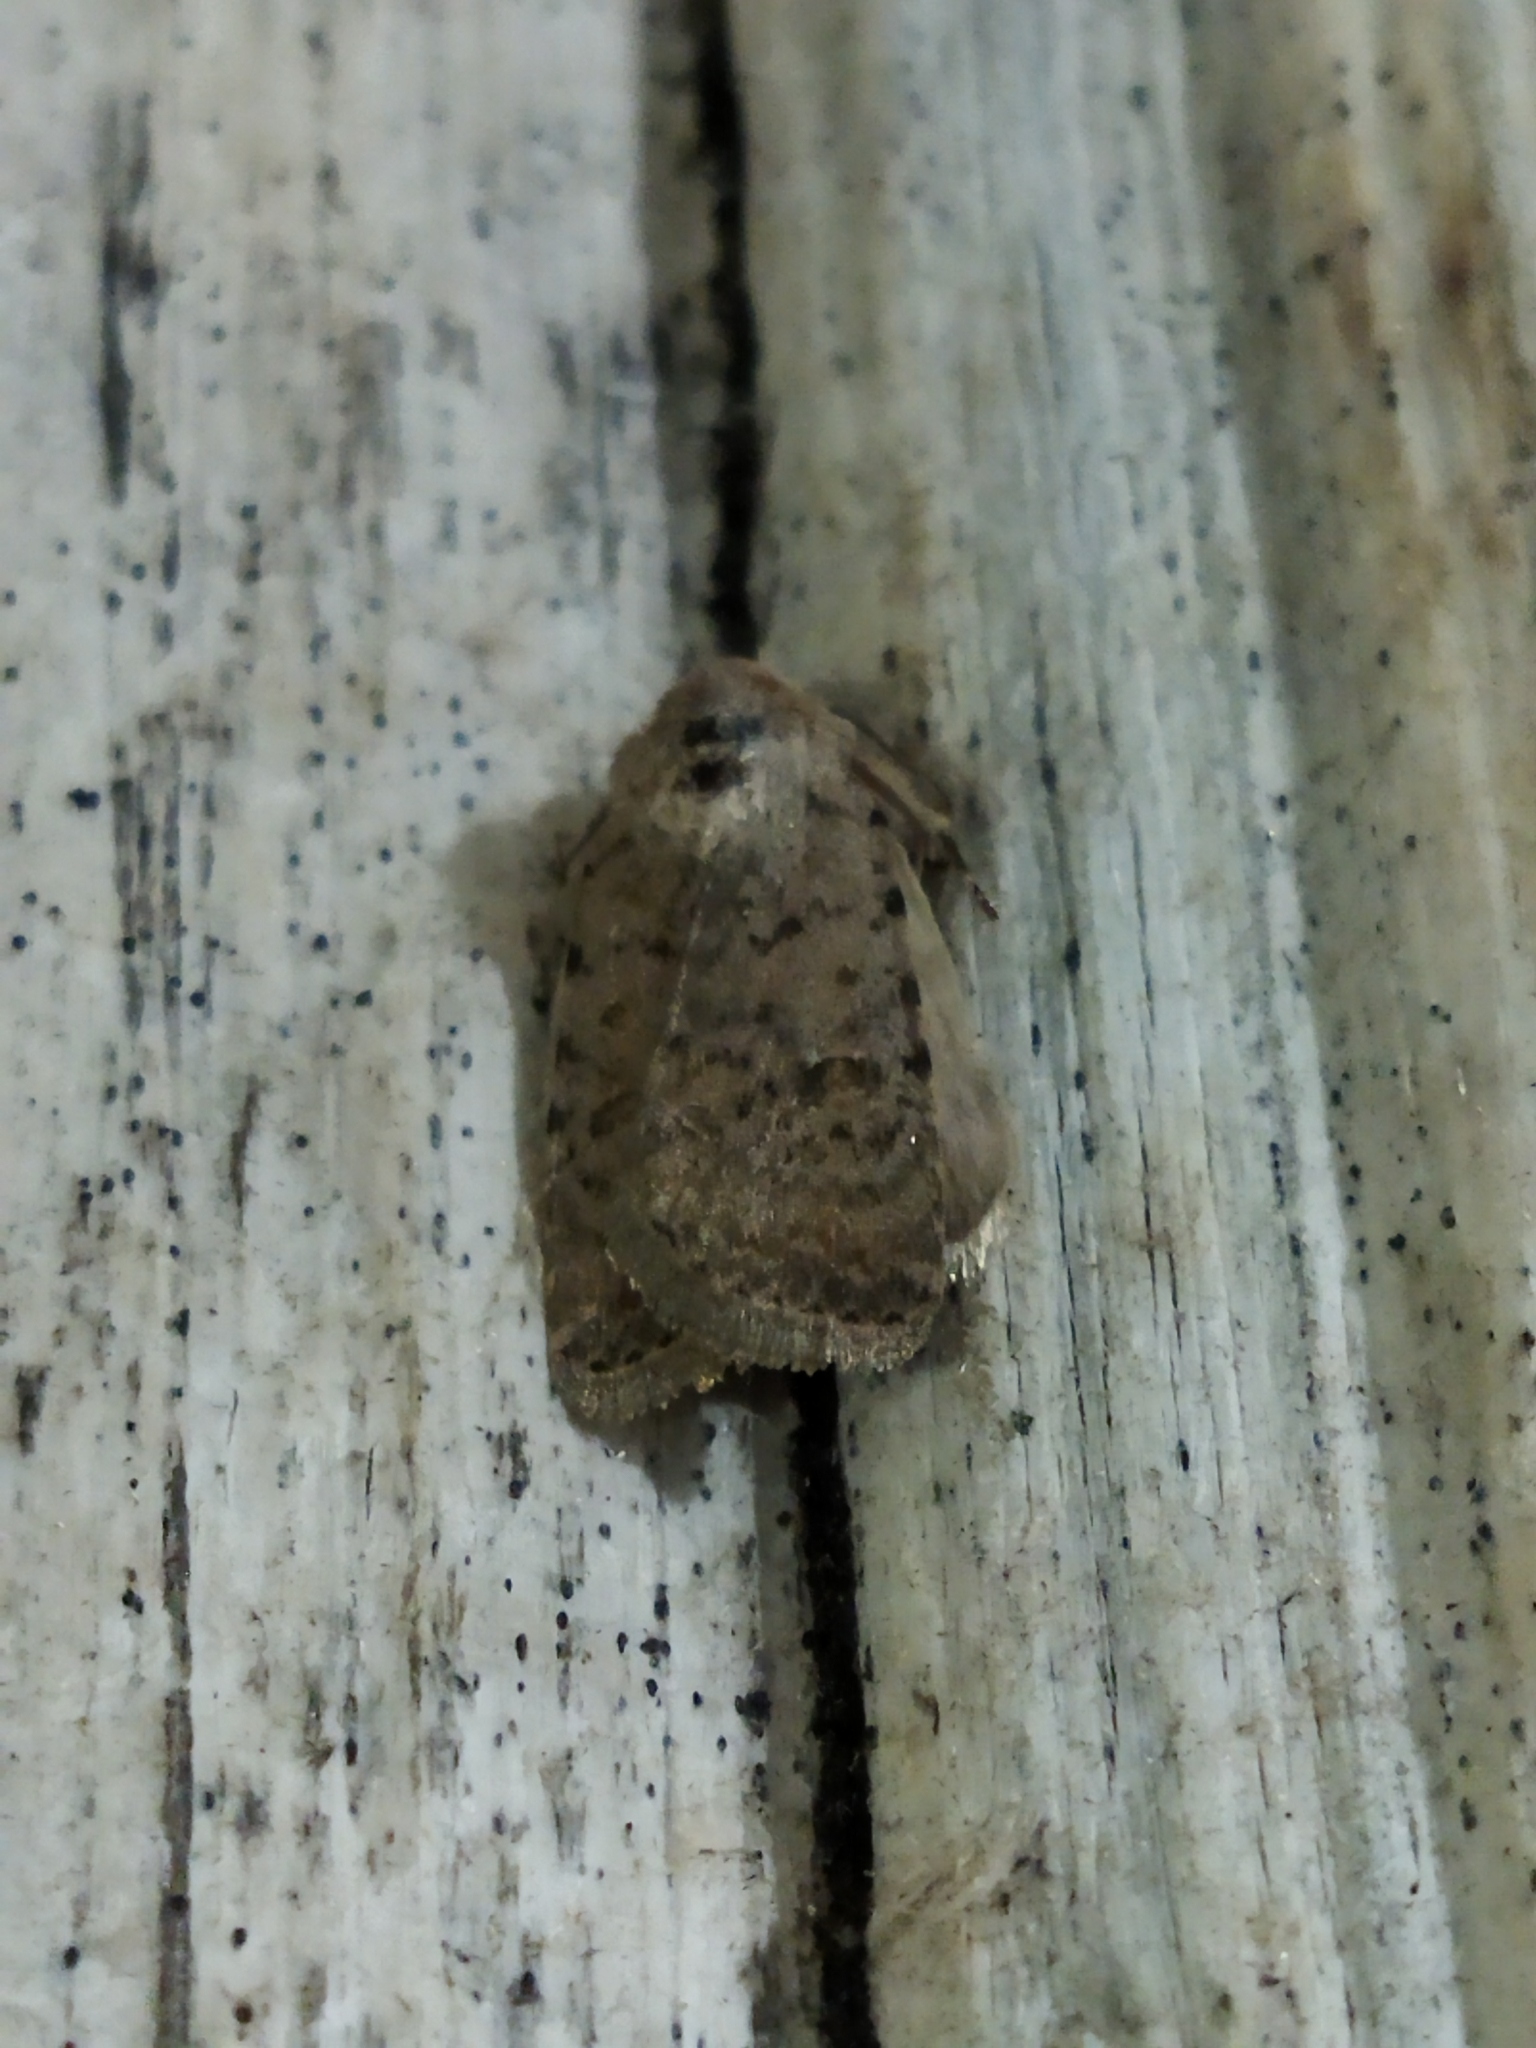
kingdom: Animalia
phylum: Arthropoda
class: Insecta
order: Lepidoptera
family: Noctuidae
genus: Caradrina
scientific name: Caradrina clavipalpis
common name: Pale mottled willow
